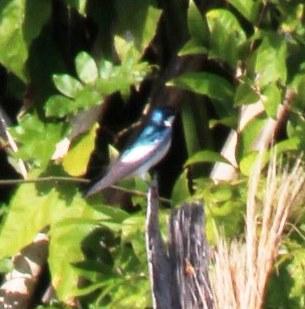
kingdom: Animalia
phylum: Chordata
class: Aves
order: Passeriformes
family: Hirundinidae
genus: Tachycineta
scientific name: Tachycineta albiventer
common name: White-winged swallow
